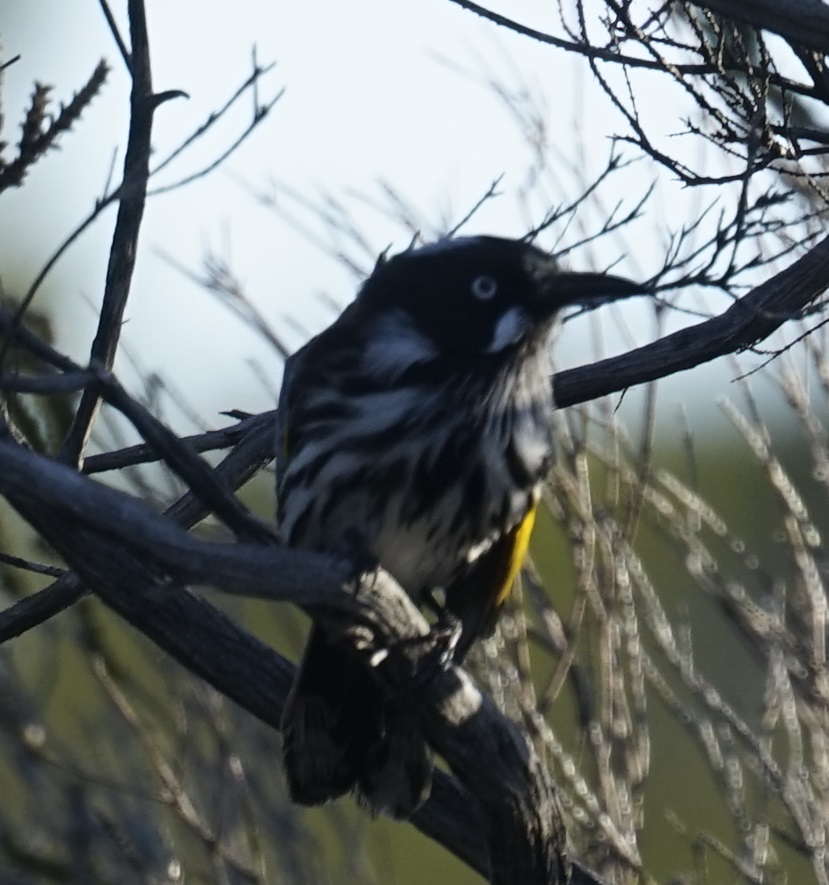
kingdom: Animalia
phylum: Chordata
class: Aves
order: Passeriformes
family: Meliphagidae
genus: Phylidonyris
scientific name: Phylidonyris novaehollandiae
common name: New holland honeyeater
